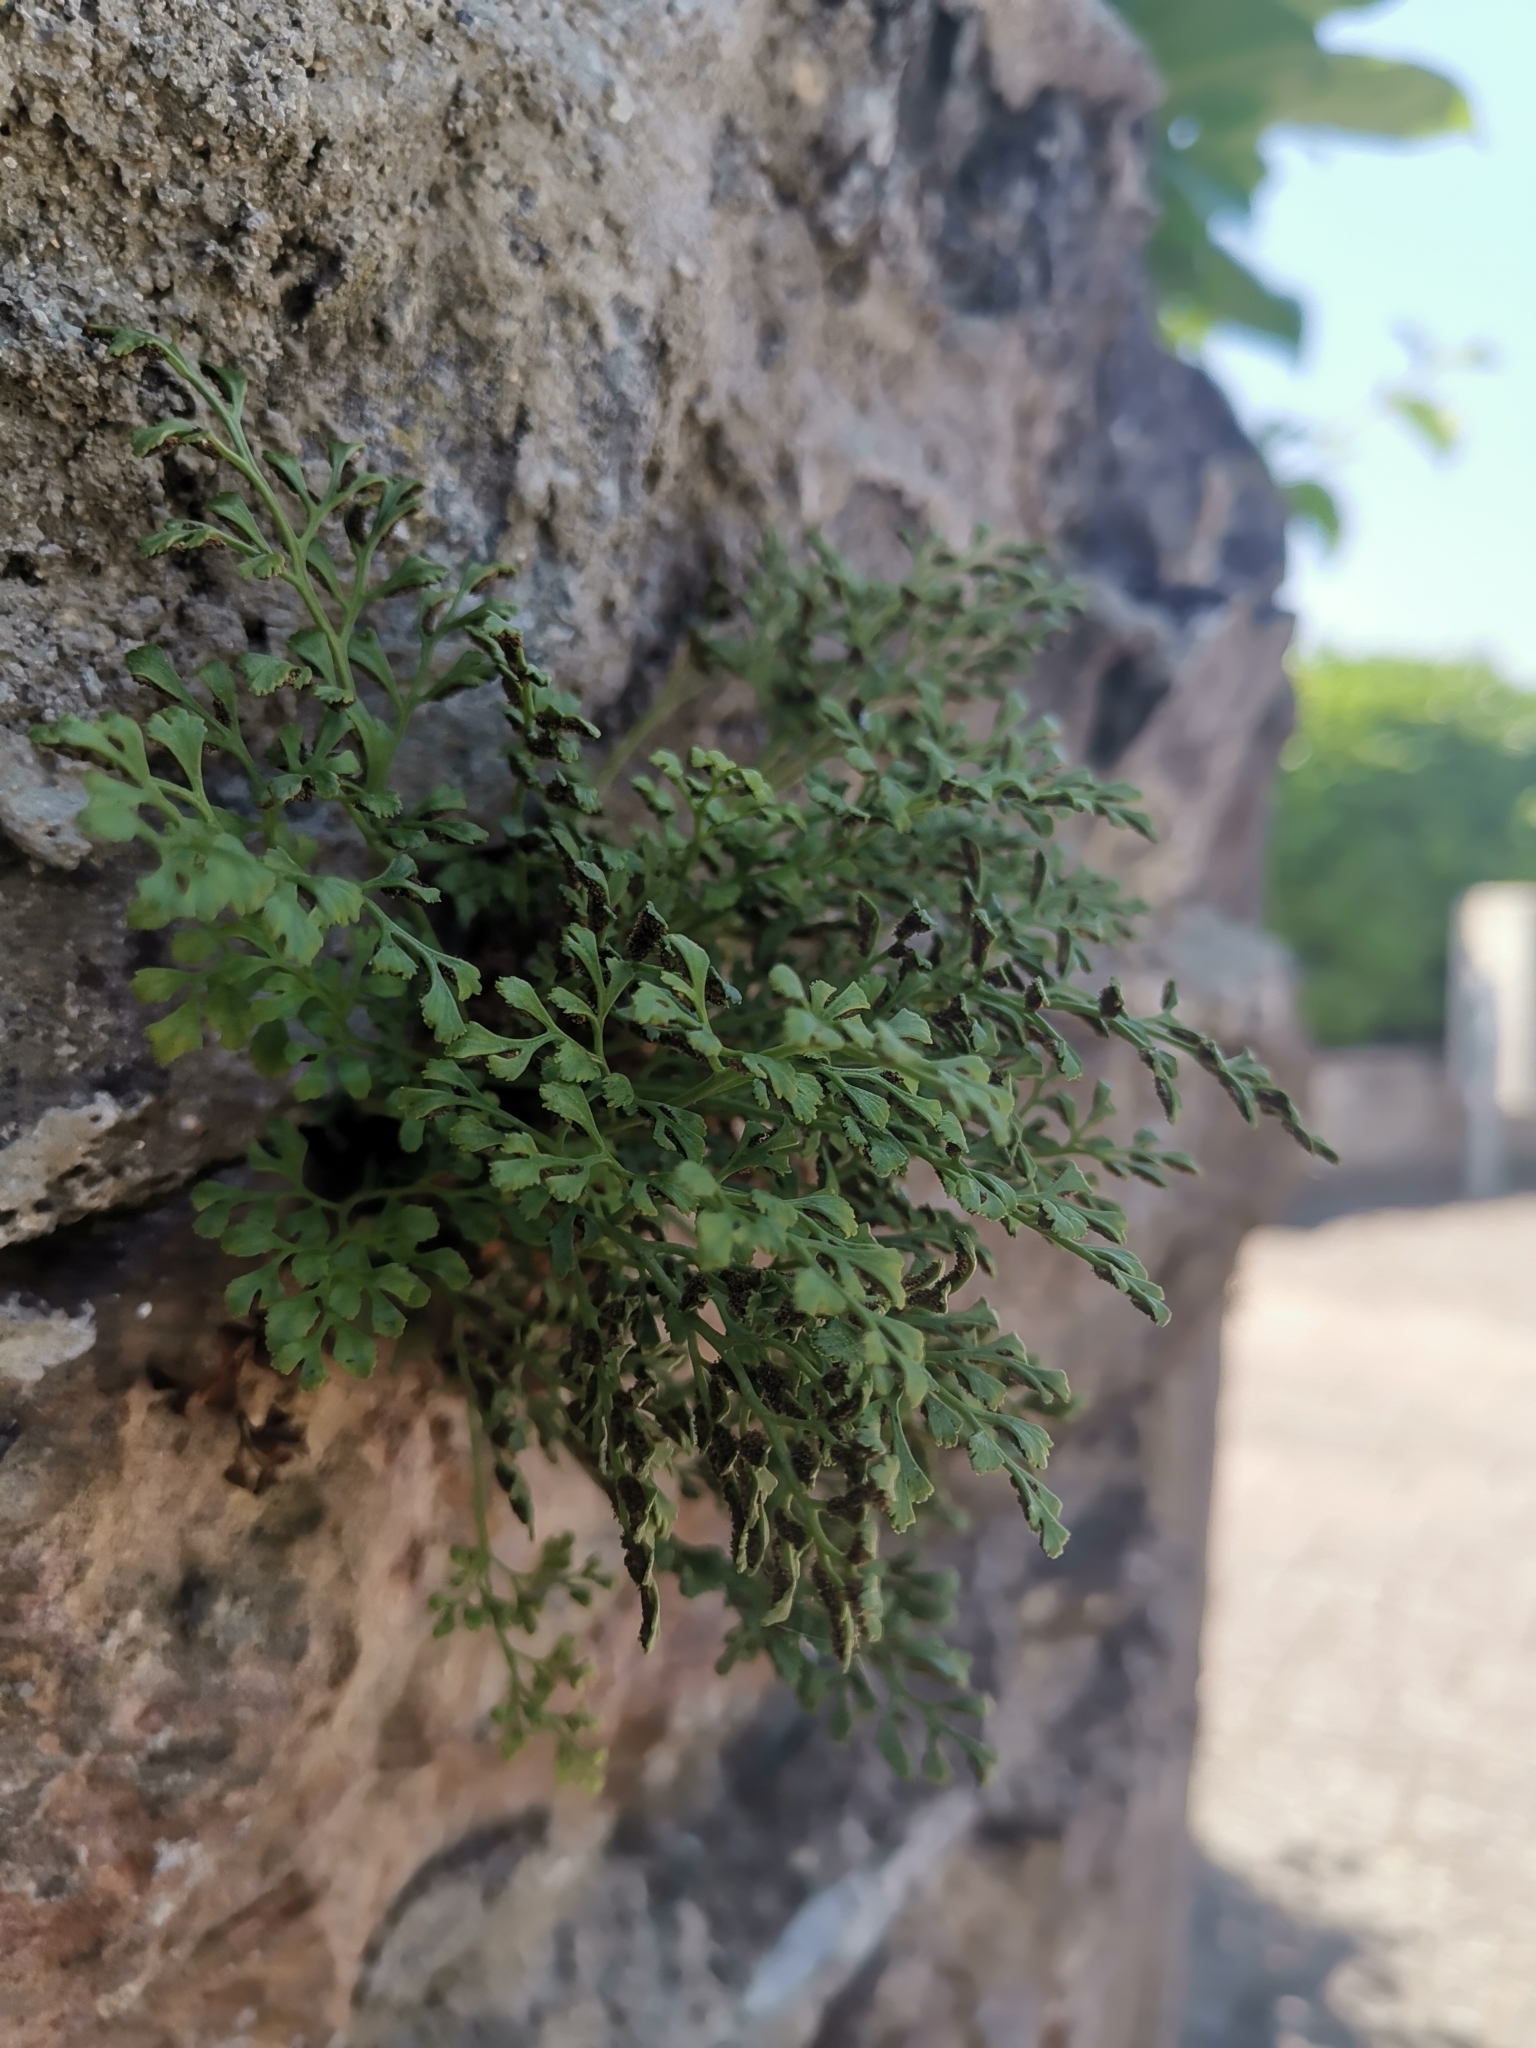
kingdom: Plantae
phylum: Tracheophyta
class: Polypodiopsida
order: Polypodiales
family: Aspleniaceae
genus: Asplenium
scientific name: Asplenium ruta-muraria
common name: Wall-rue
